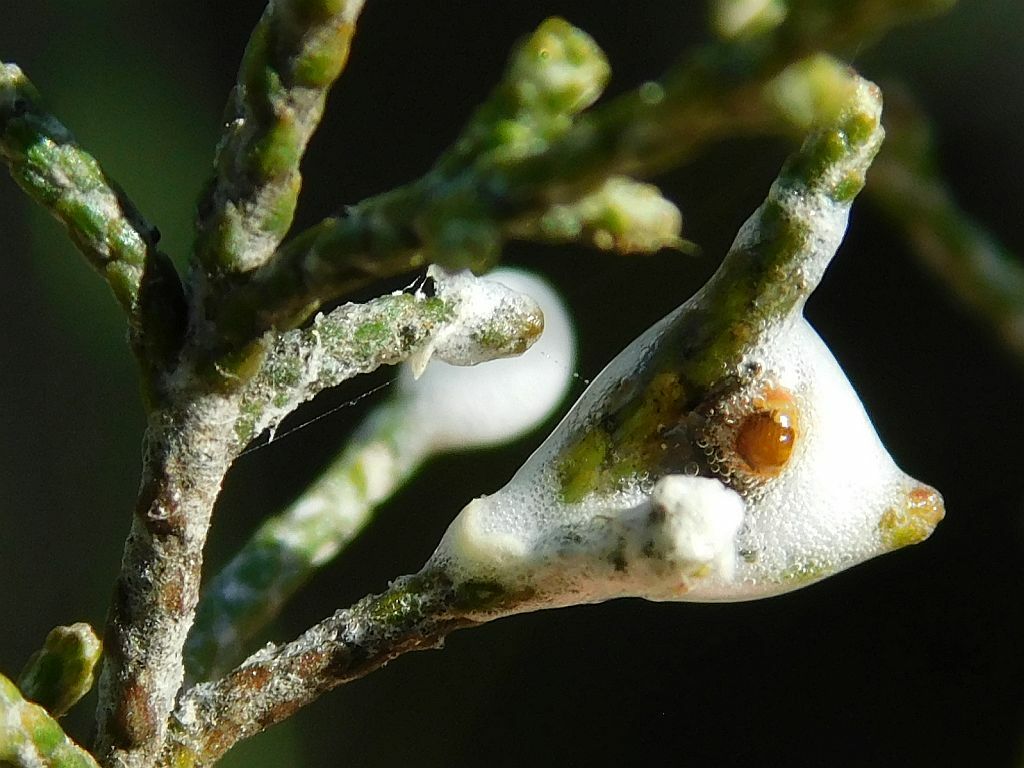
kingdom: Animalia
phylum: Arthropoda
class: Insecta
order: Hemiptera
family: Aphrophoridae
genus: Tremapterus
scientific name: Tremapterus
